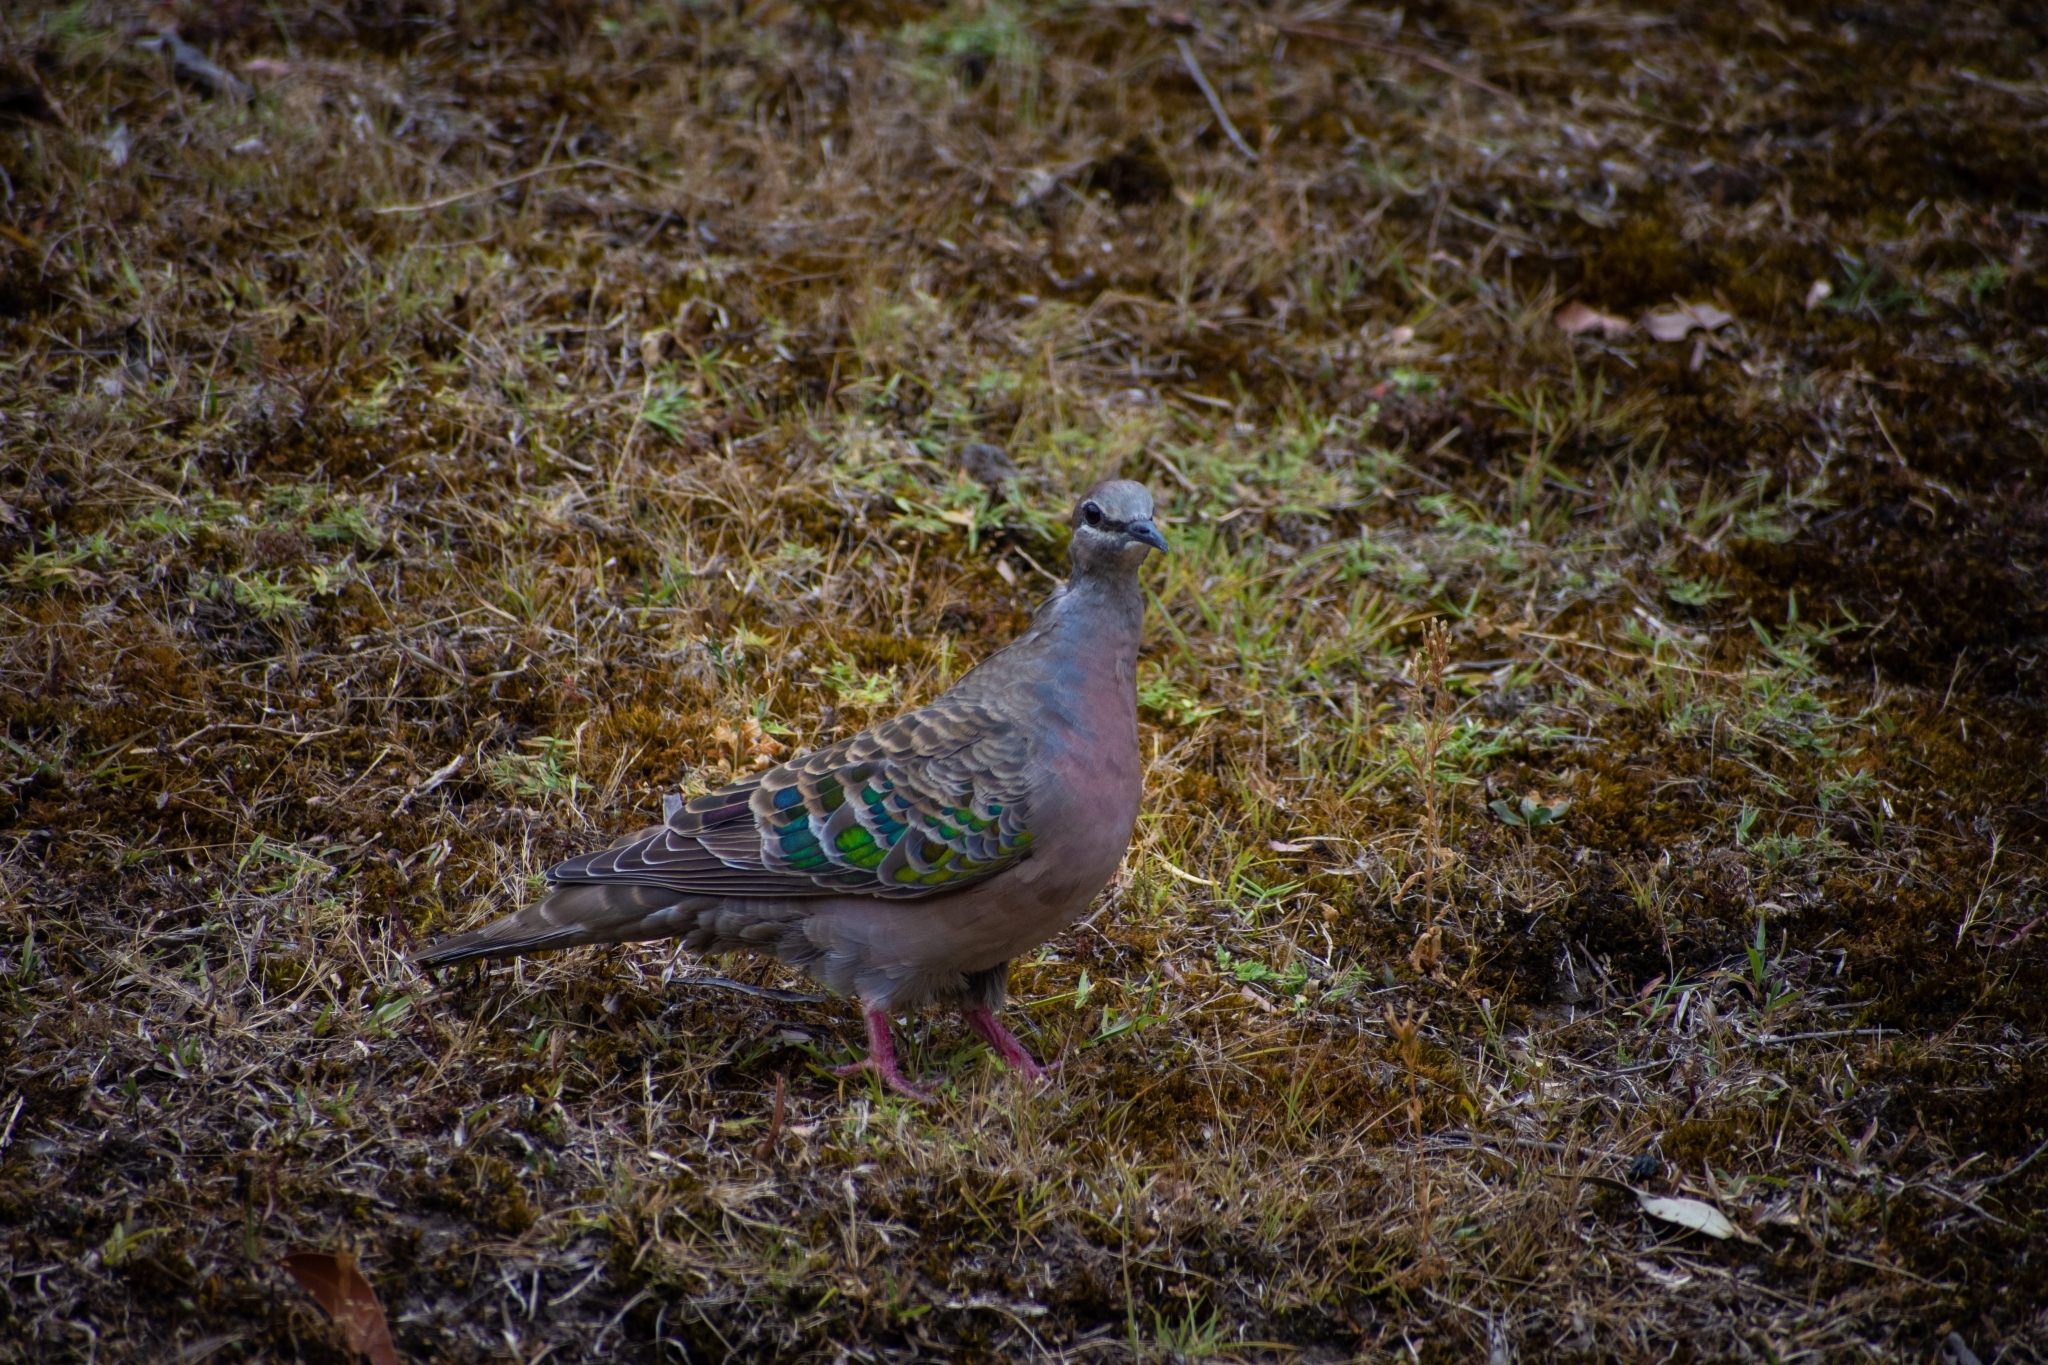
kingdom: Animalia
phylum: Chordata
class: Aves
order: Columbiformes
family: Columbidae
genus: Phaps
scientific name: Phaps chalcoptera
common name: Common bronzewing
